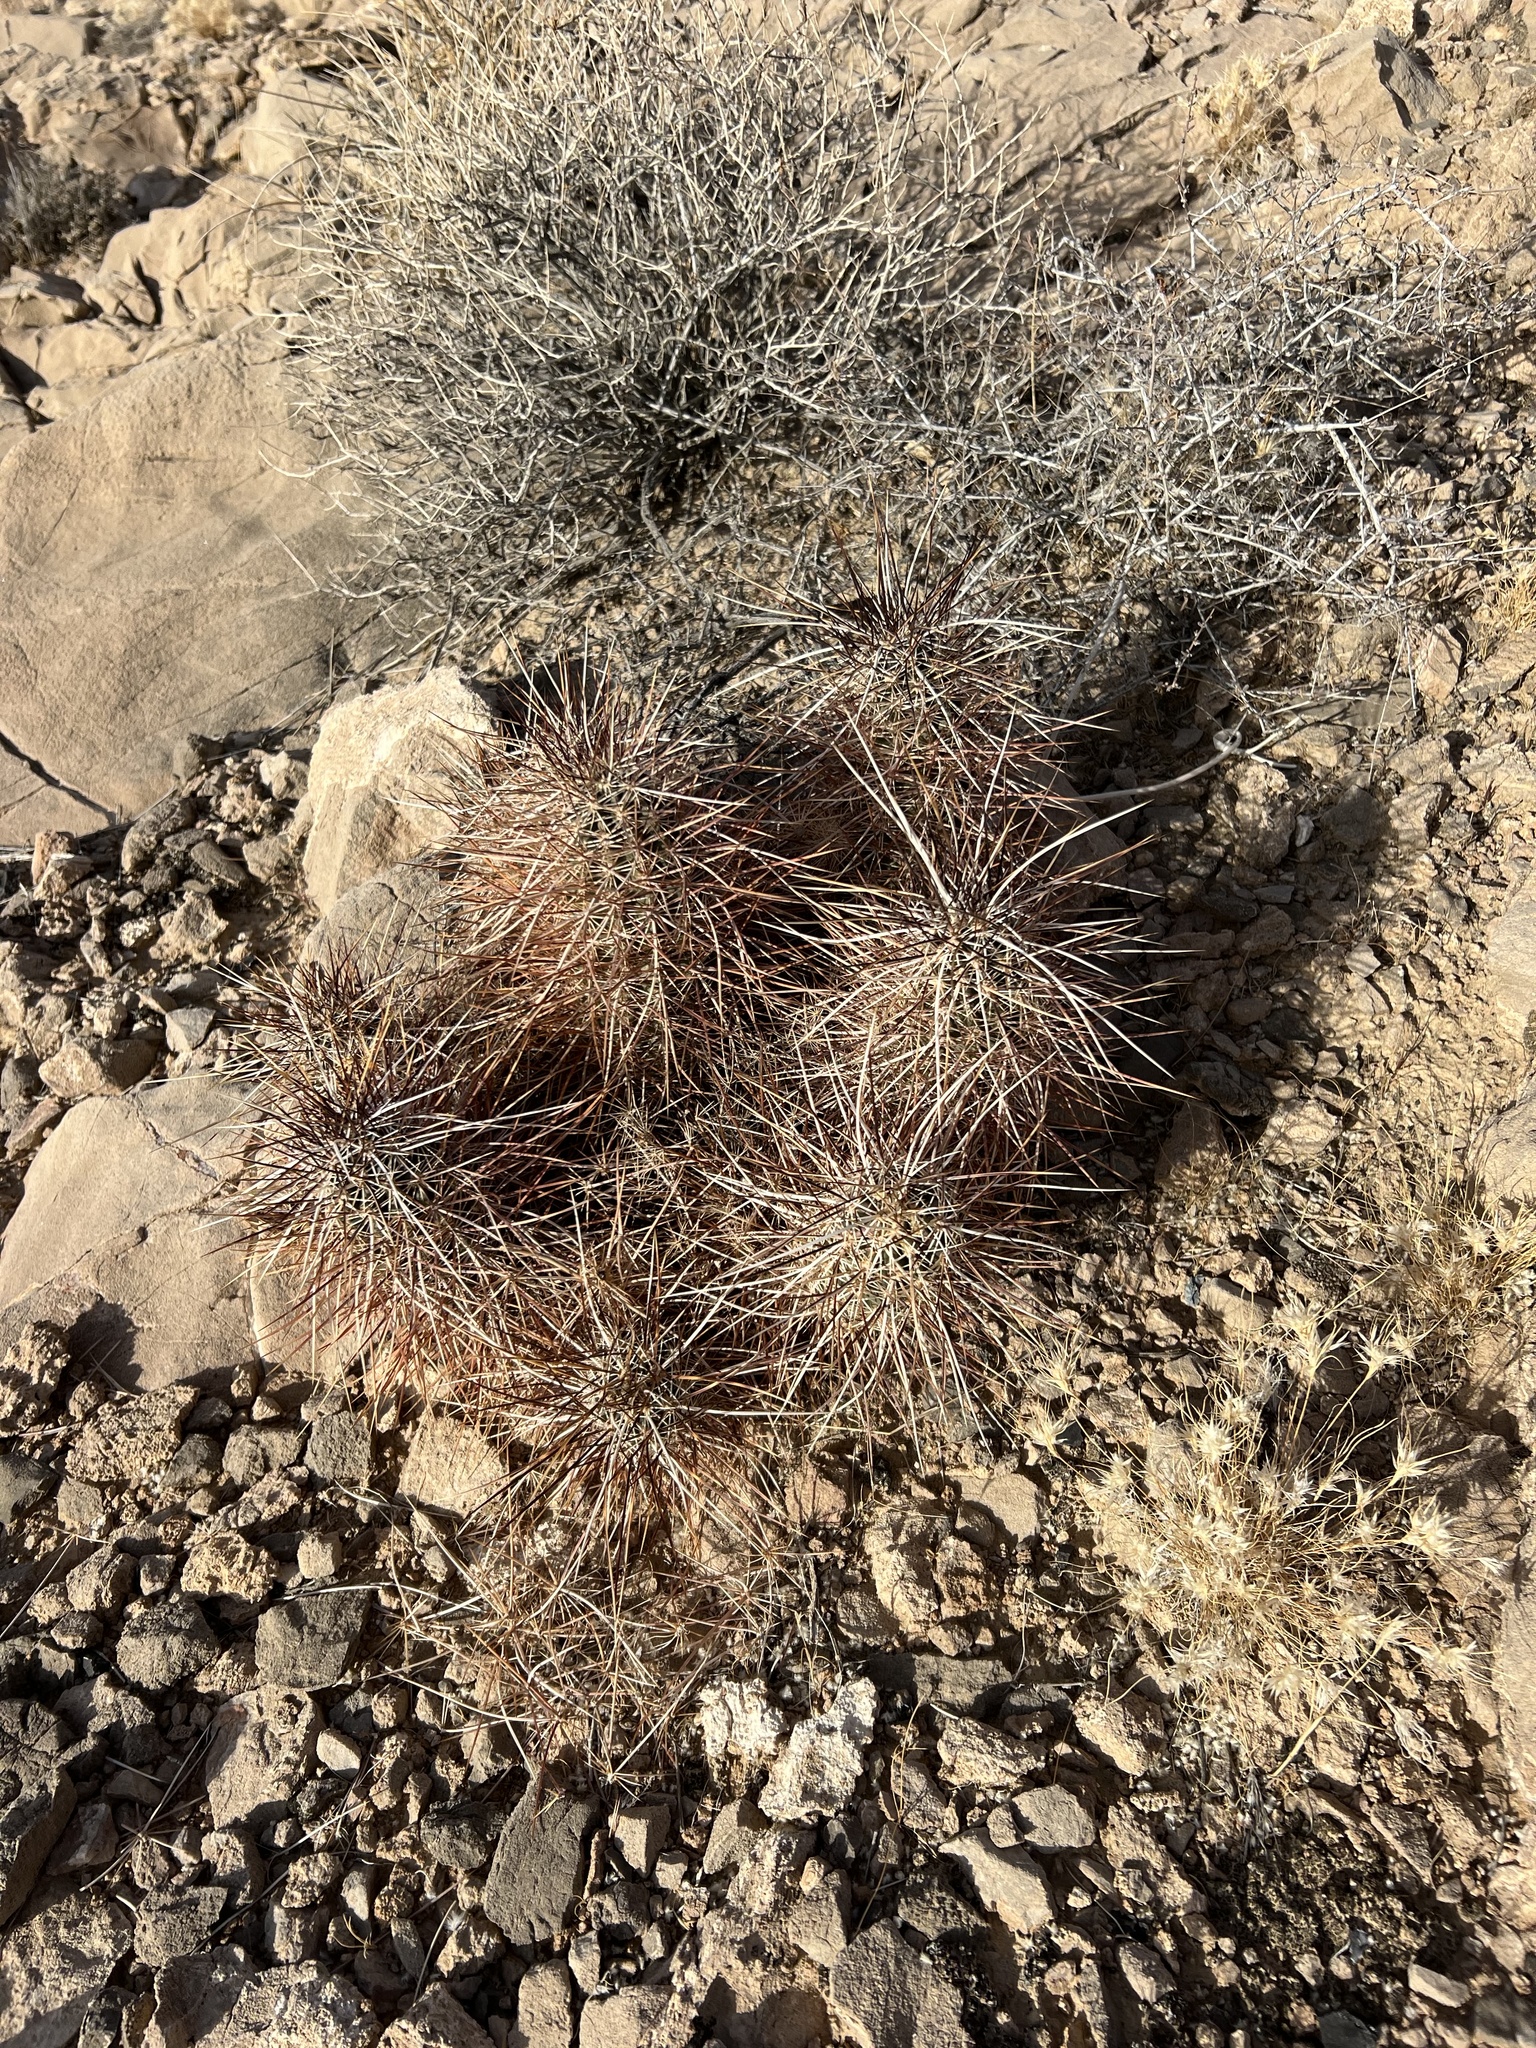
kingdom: Plantae
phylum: Tracheophyta
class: Magnoliopsida
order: Caryophyllales
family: Cactaceae
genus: Echinocereus
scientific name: Echinocereus engelmannii
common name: Engelmann's hedgehog cactus
